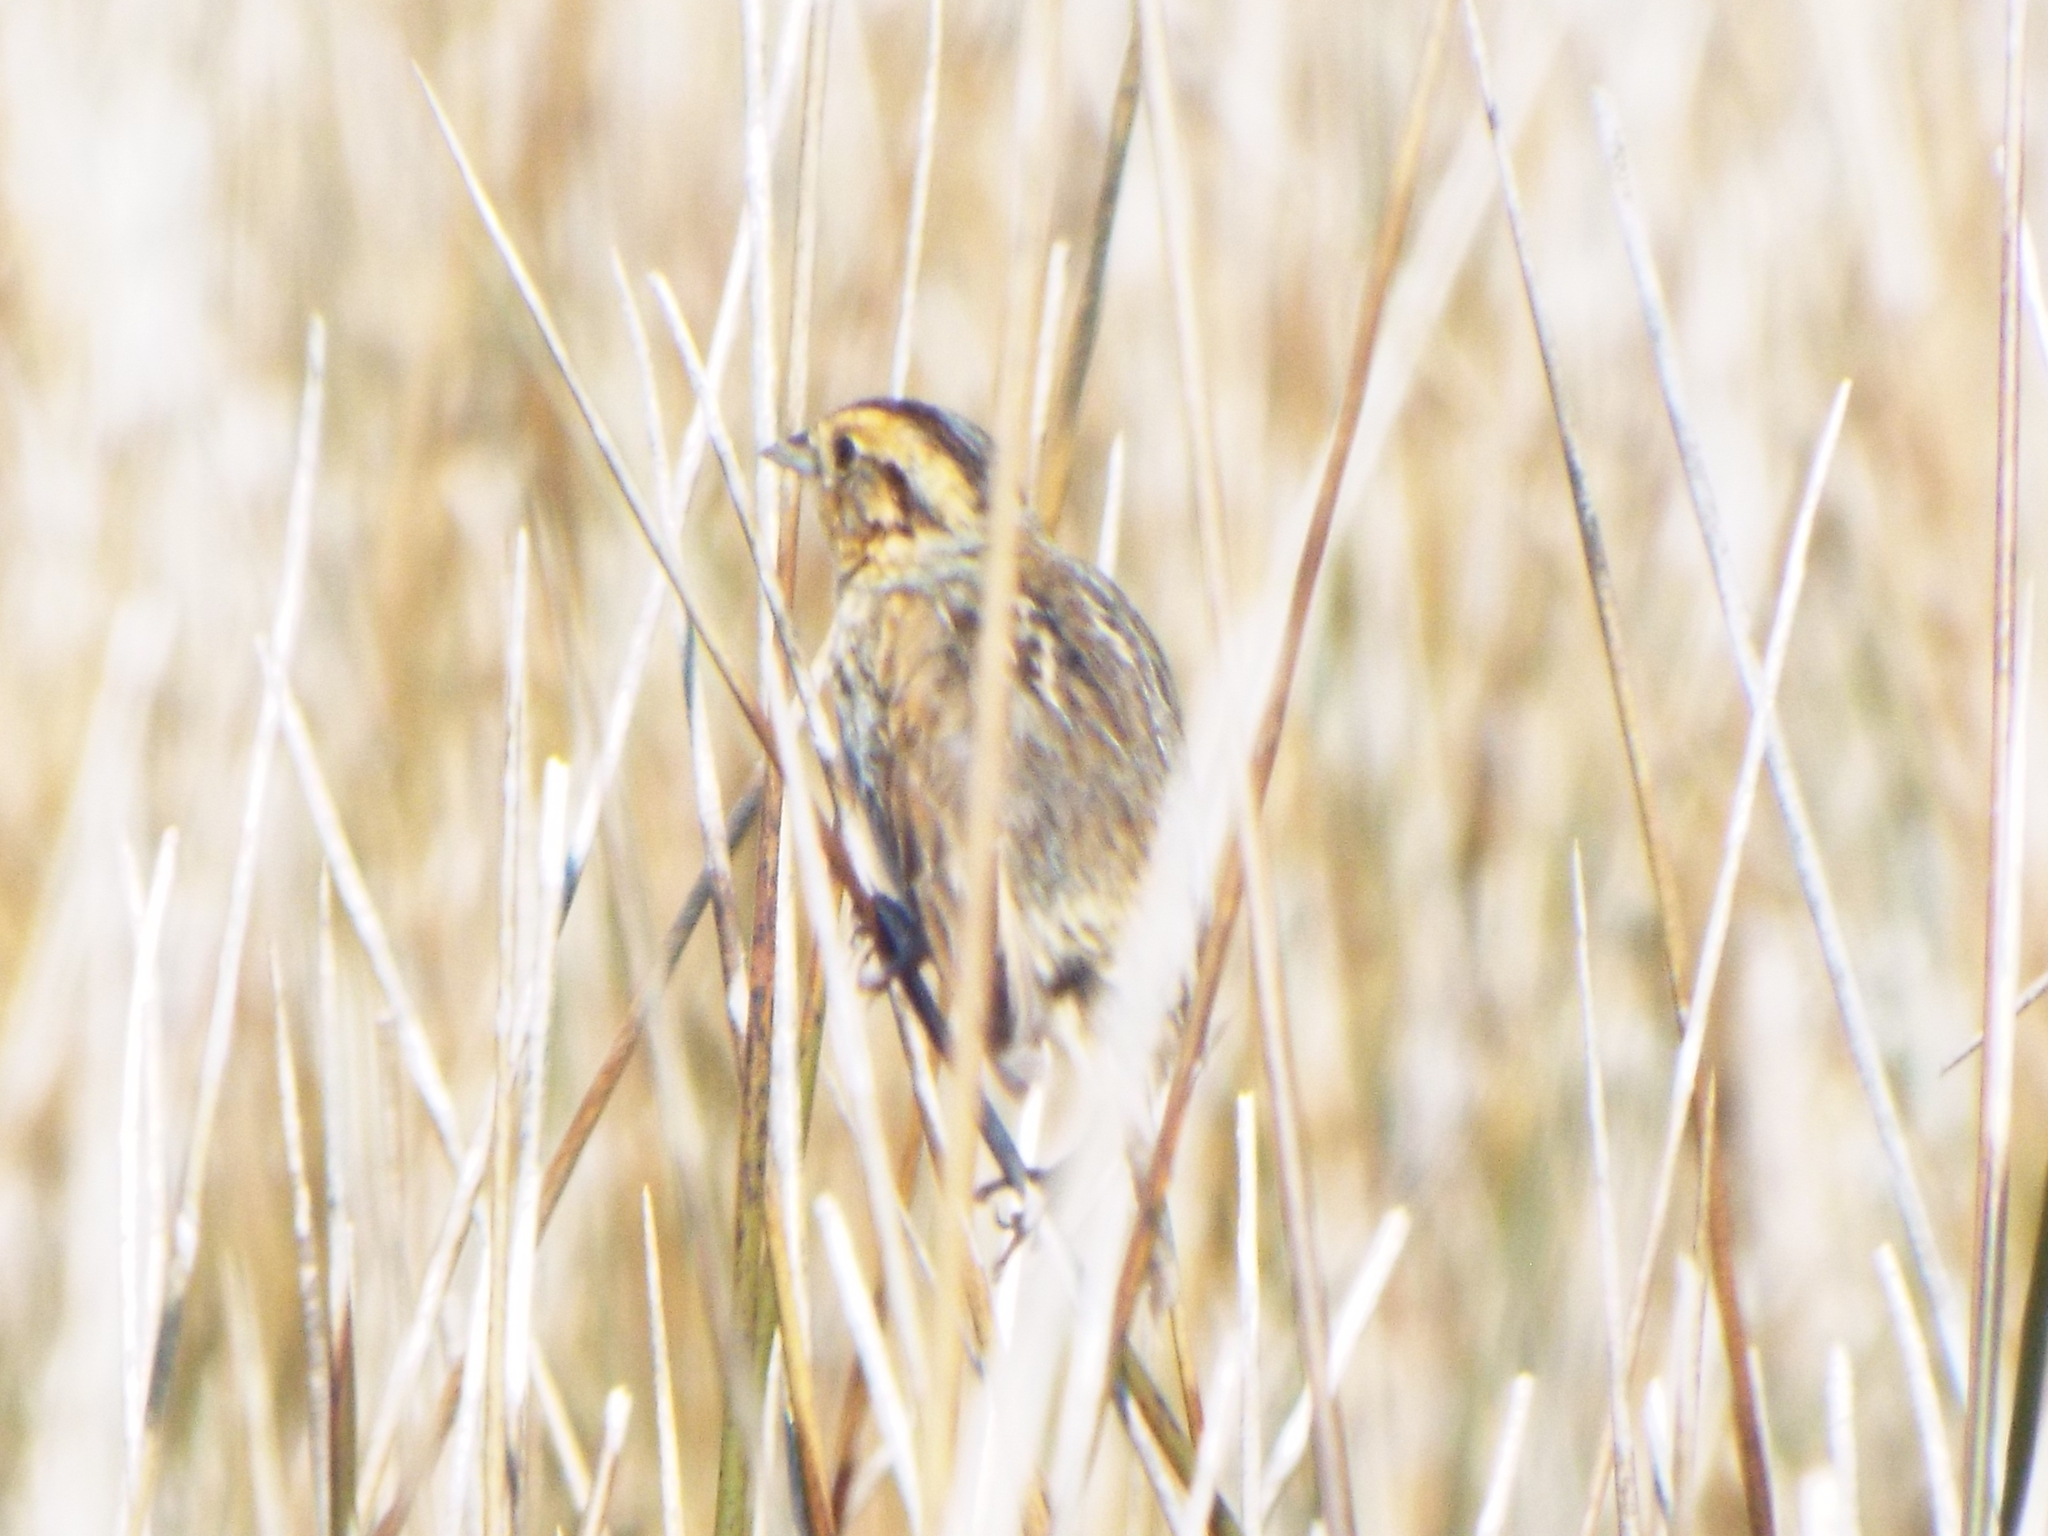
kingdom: Animalia
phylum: Chordata
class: Aves
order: Passeriformes
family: Passerellidae
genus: Ammospiza
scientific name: Ammospiza nelsoni
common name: Nelson's sparrow
